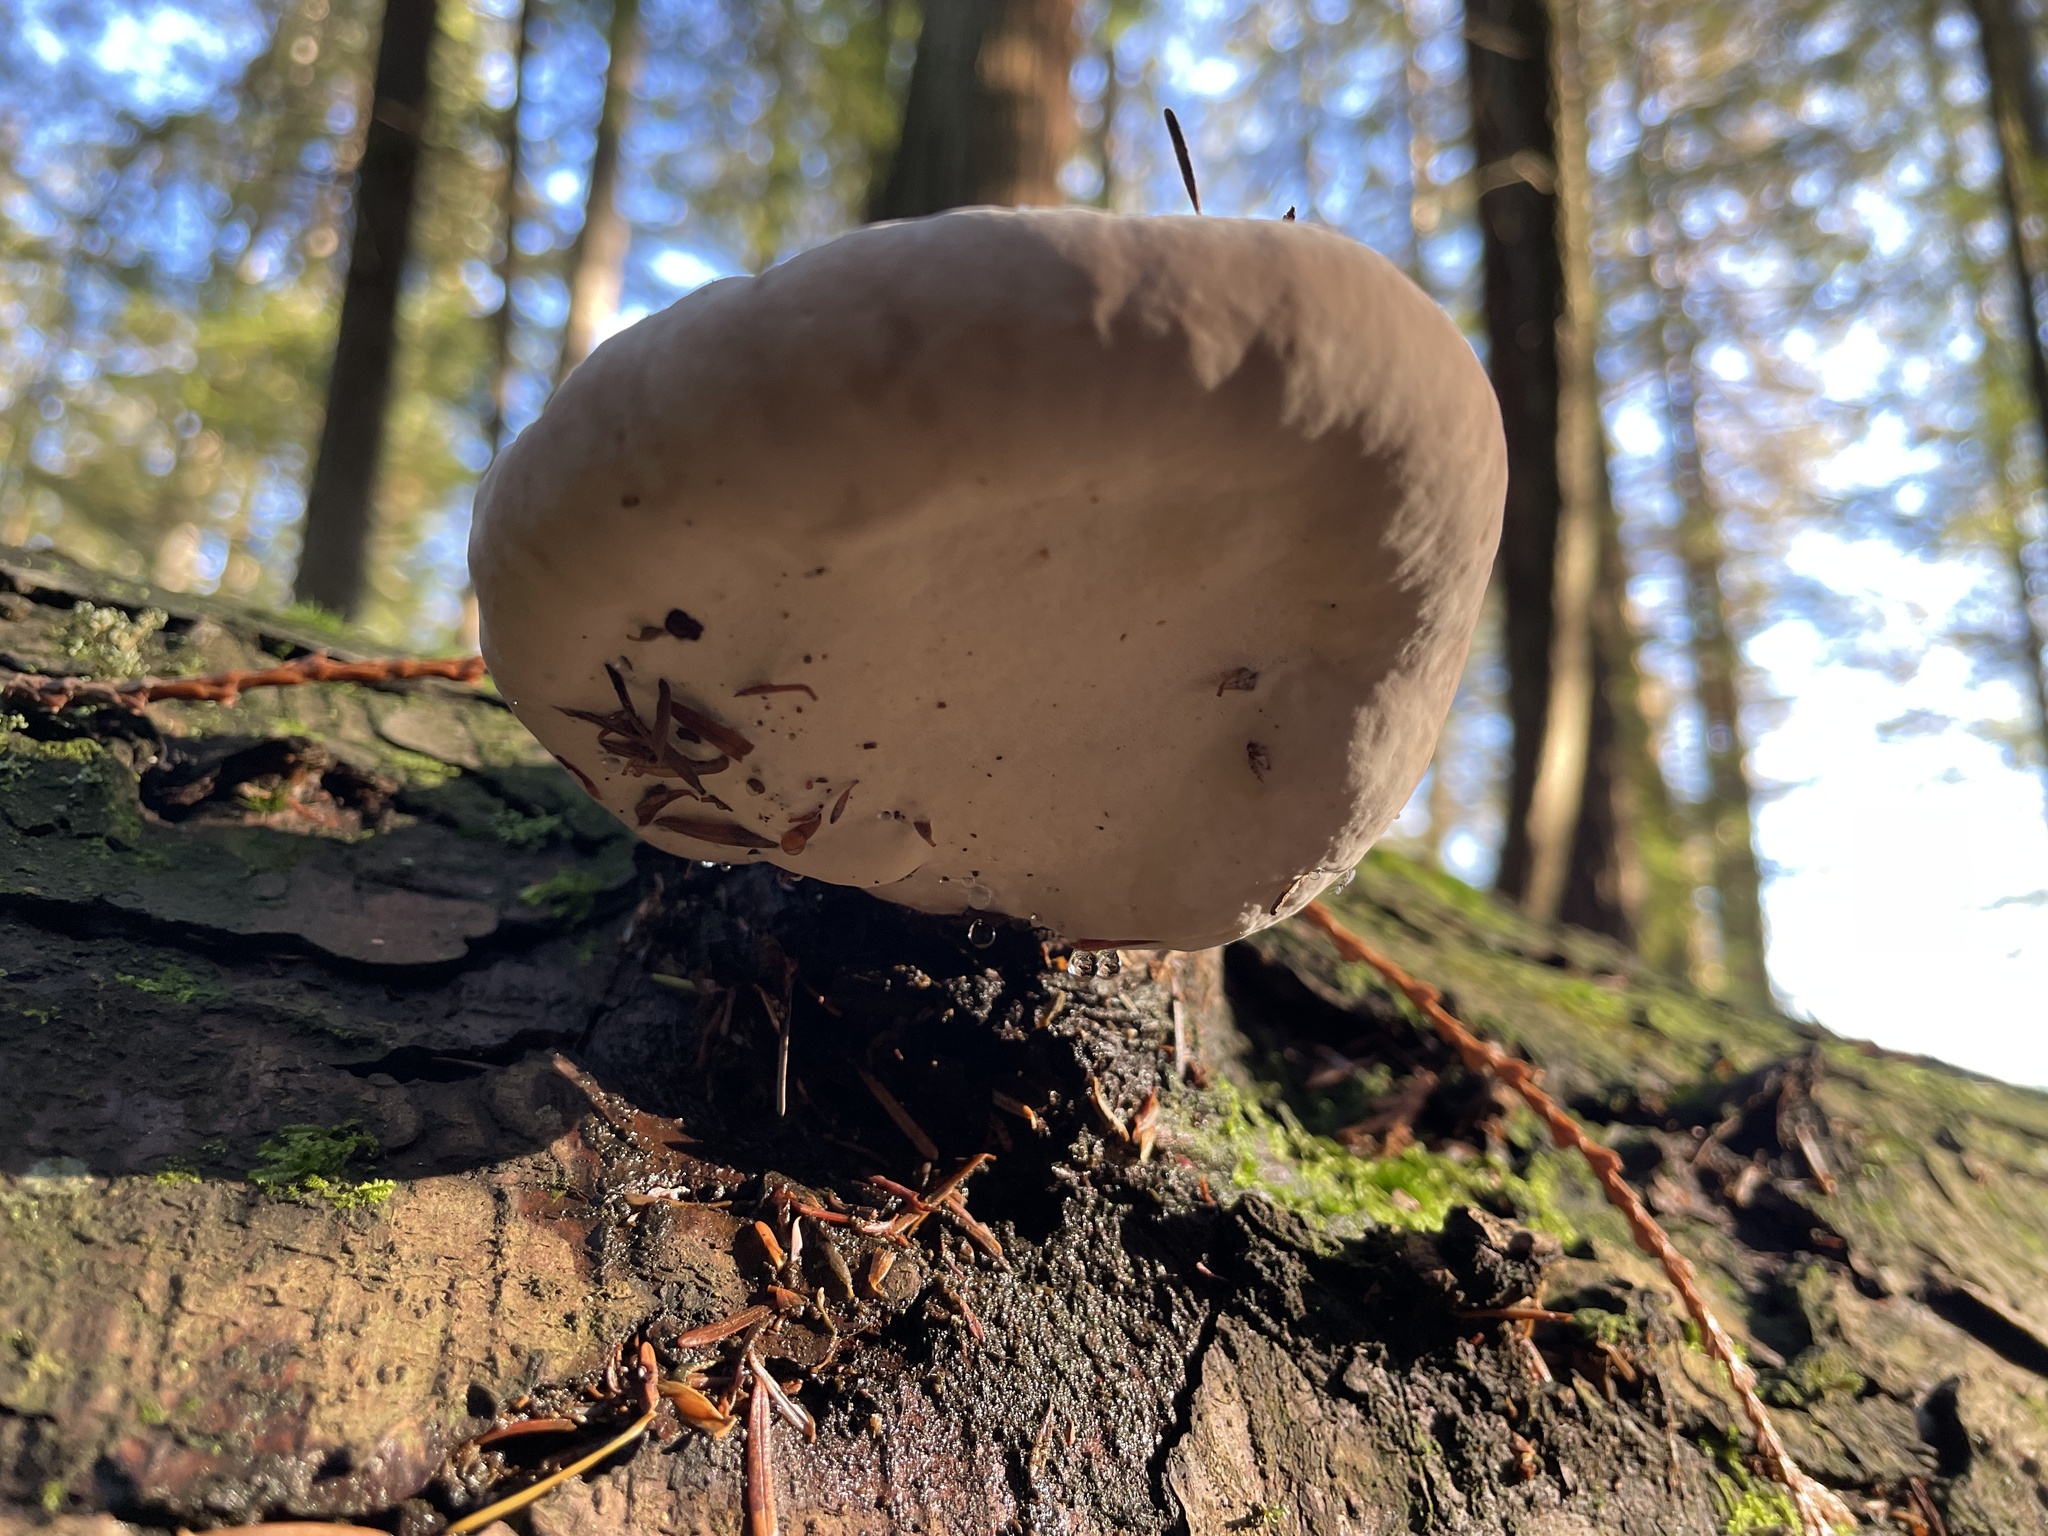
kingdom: Fungi
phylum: Basidiomycota
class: Agaricomycetes
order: Polyporales
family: Fomitopsidaceae
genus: Fomitopsis
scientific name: Fomitopsis mounceae
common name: Northern red belt
